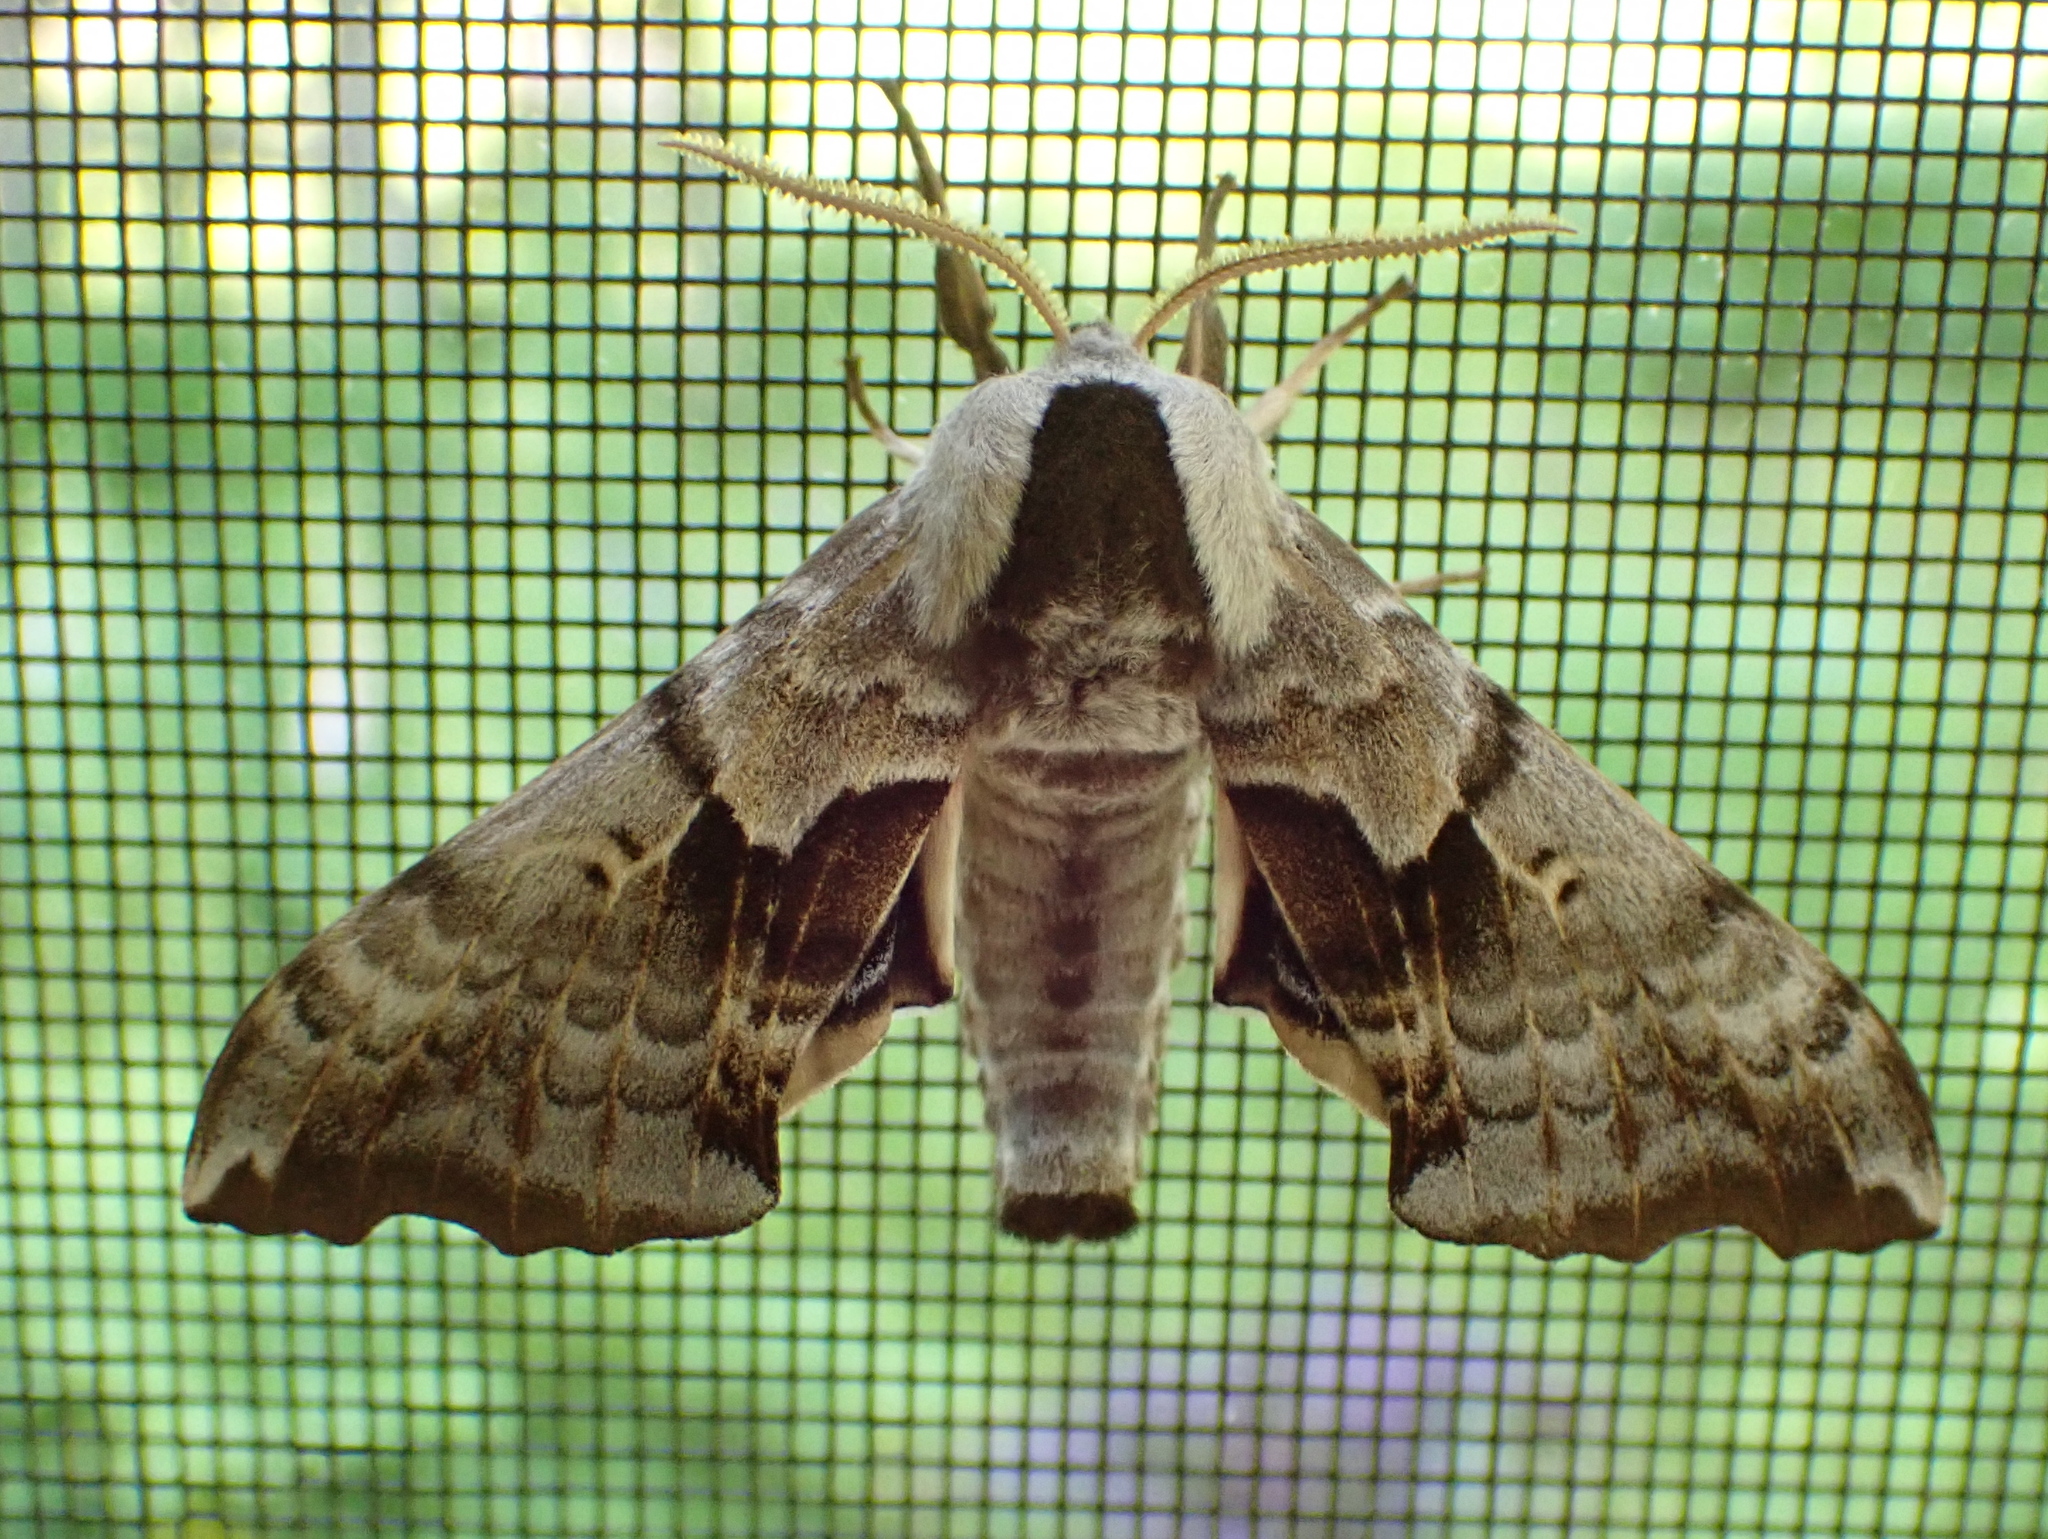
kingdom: Animalia
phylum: Arthropoda
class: Insecta
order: Lepidoptera
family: Sphingidae
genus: Smerinthus
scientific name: Smerinthus cerisyi
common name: Cerisy's sphinx moth
